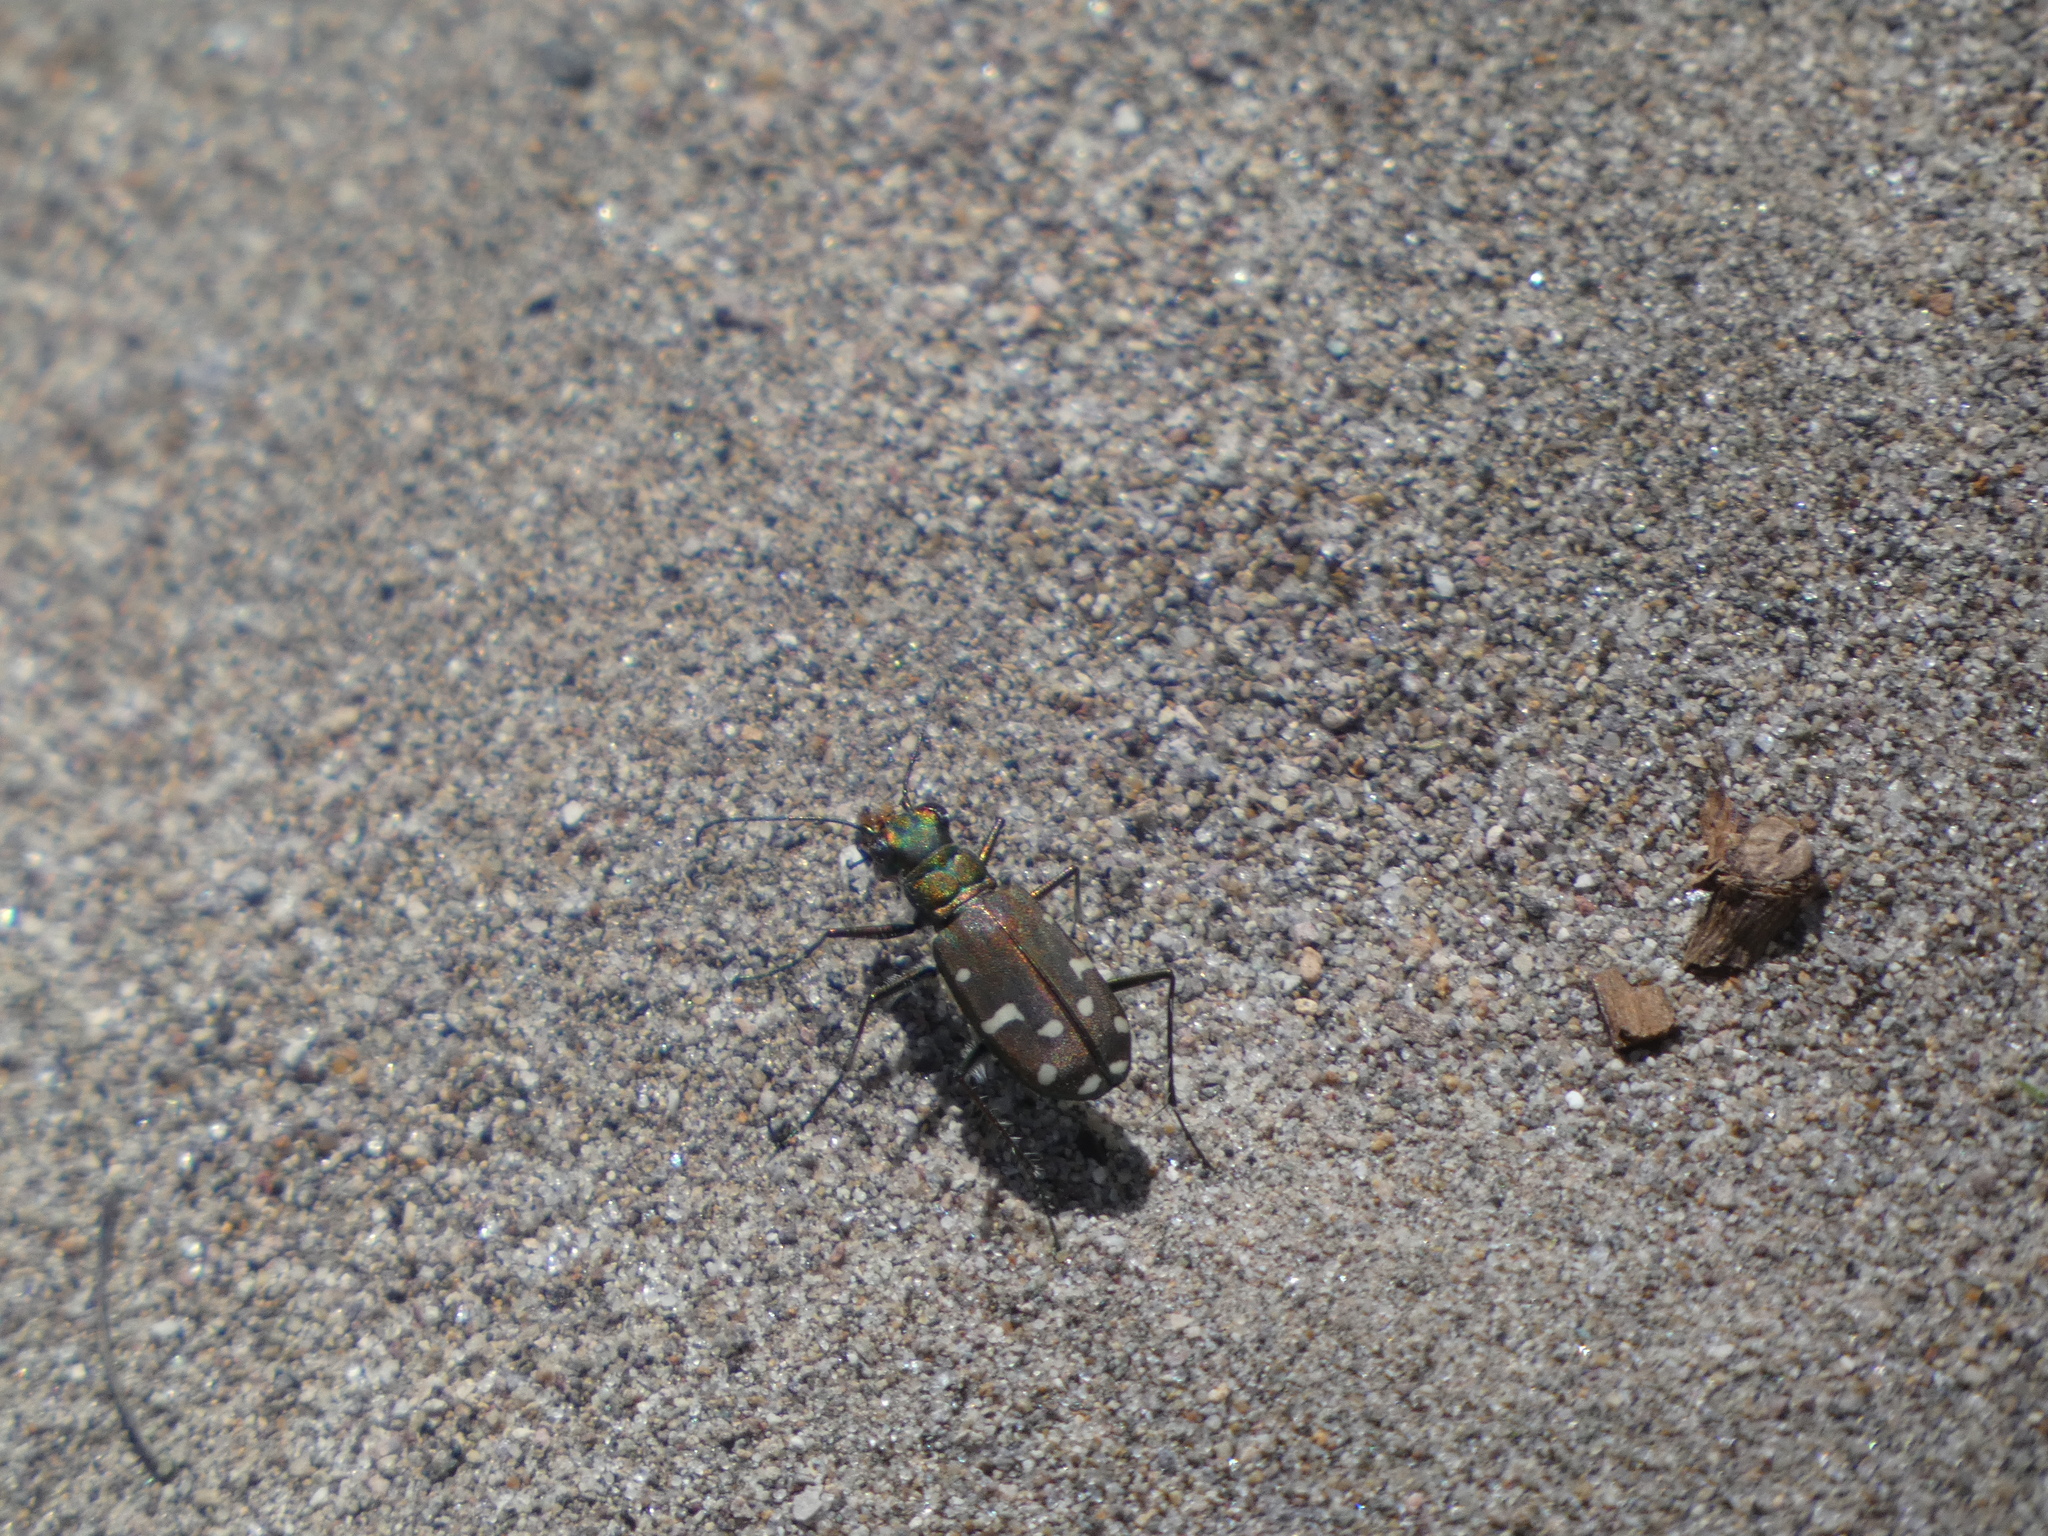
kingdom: Animalia
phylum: Arthropoda
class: Insecta
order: Coleoptera
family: Carabidae
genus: Cicindela
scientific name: Cicindela oregona
